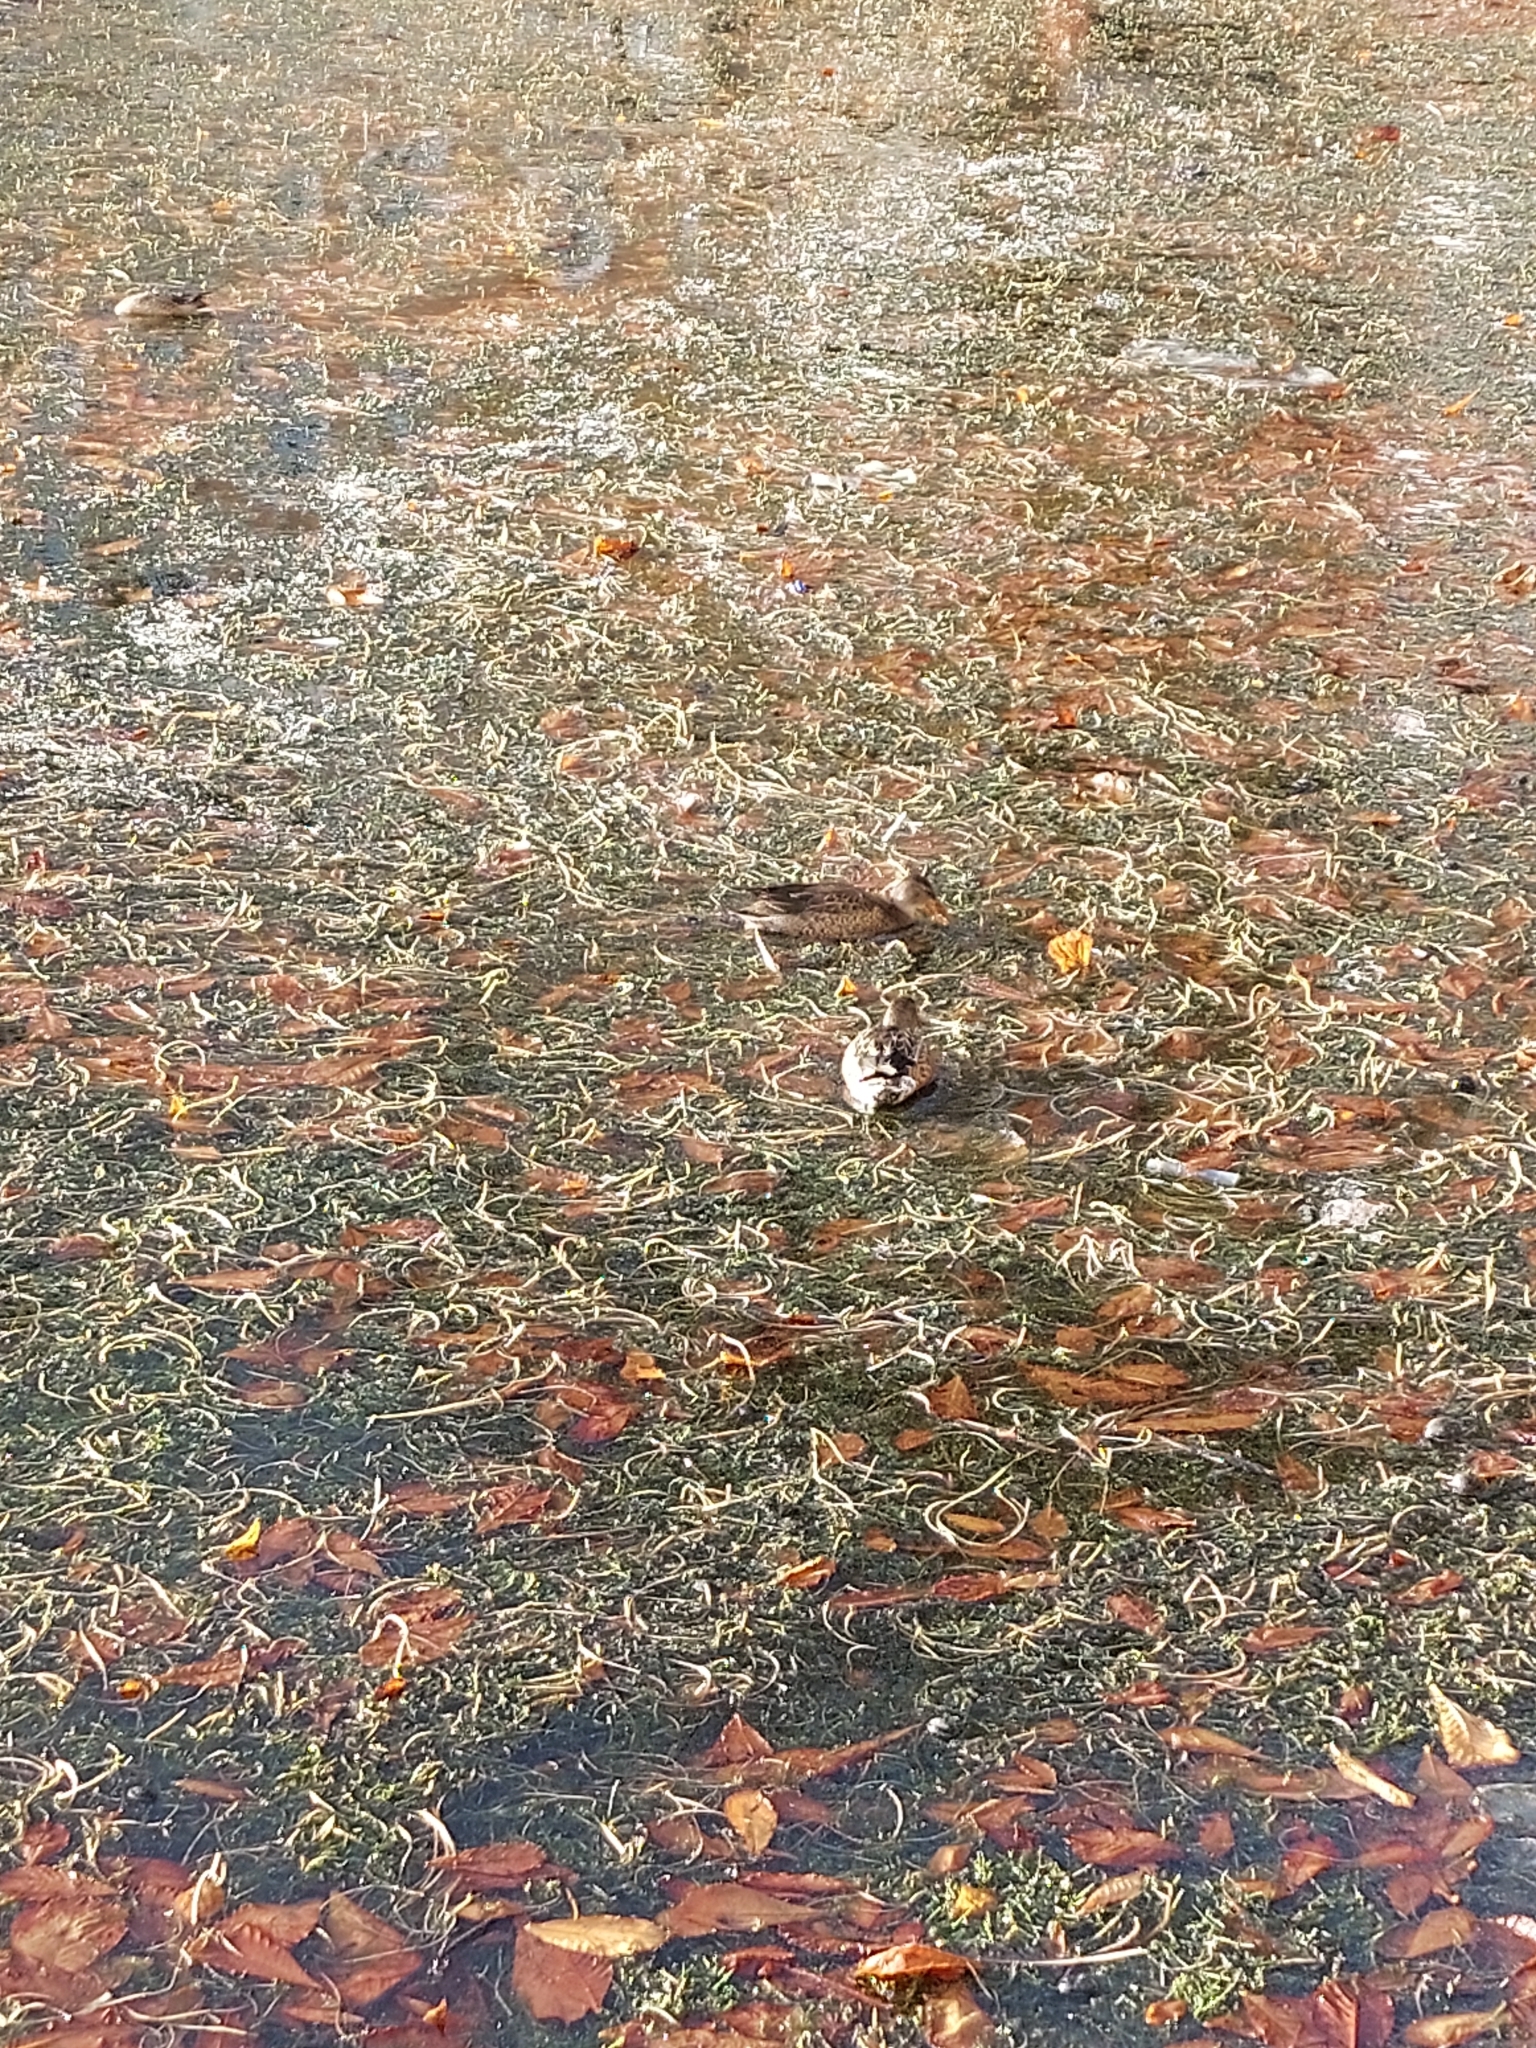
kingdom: Animalia
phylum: Chordata
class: Aves
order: Anseriformes
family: Anatidae
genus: Spatula
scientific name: Spatula clypeata
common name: Northern shoveler
